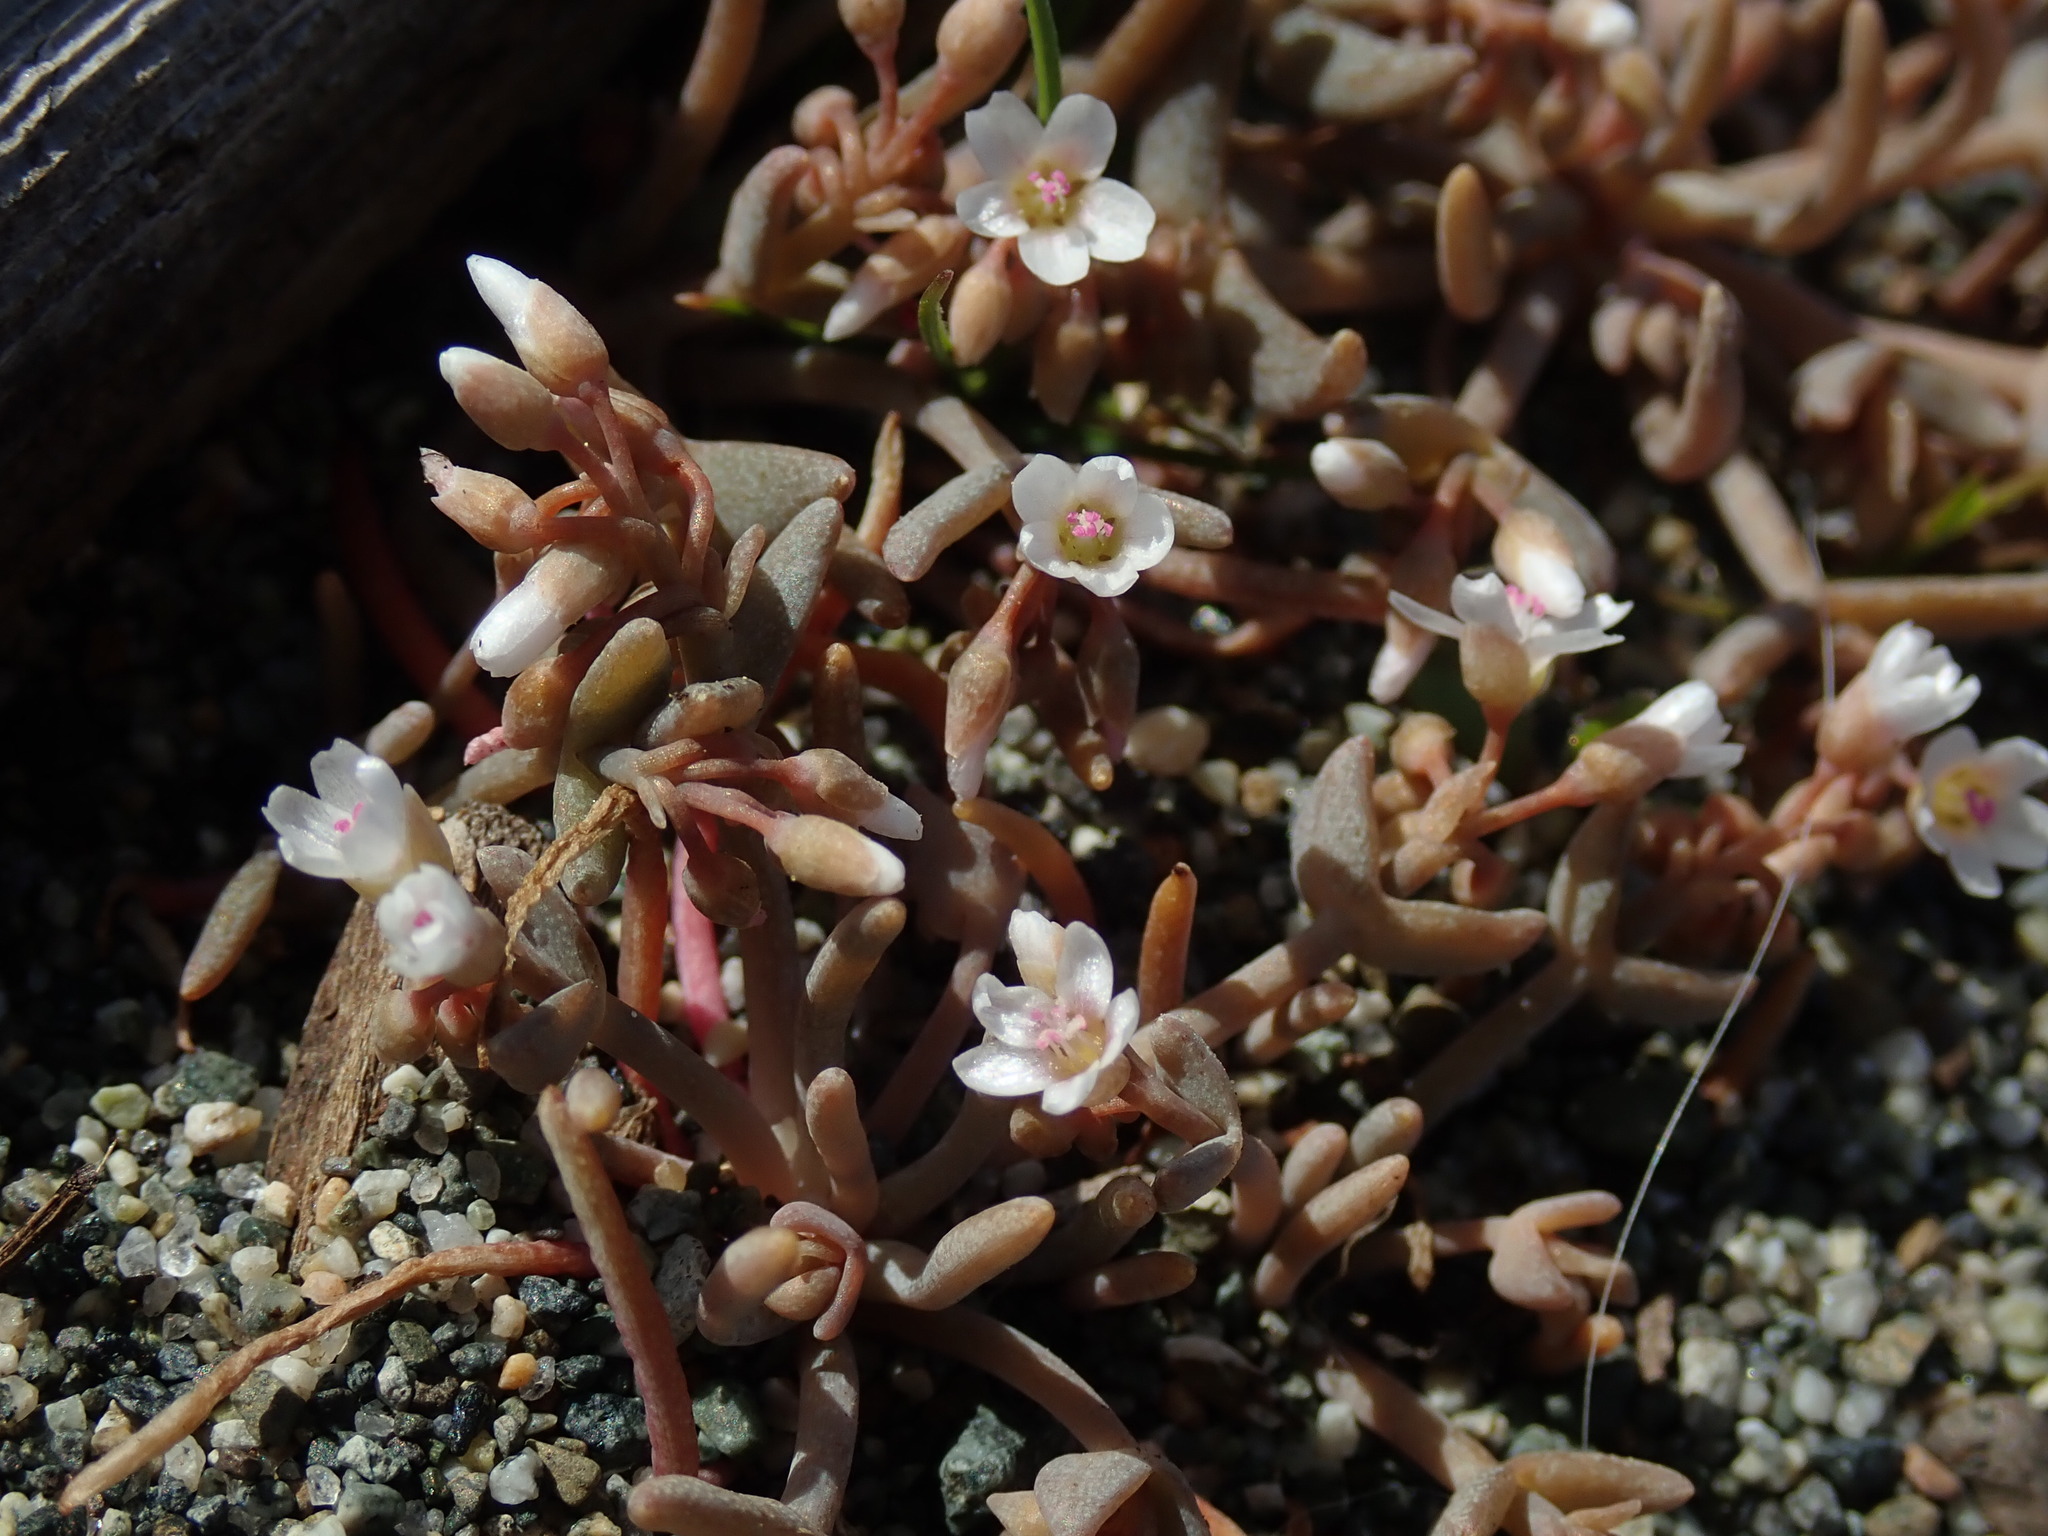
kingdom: Plantae
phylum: Tracheophyta
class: Magnoliopsida
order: Caryophyllales
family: Montiaceae
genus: Claytonia
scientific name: Claytonia exigua
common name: Pale spring beauty
